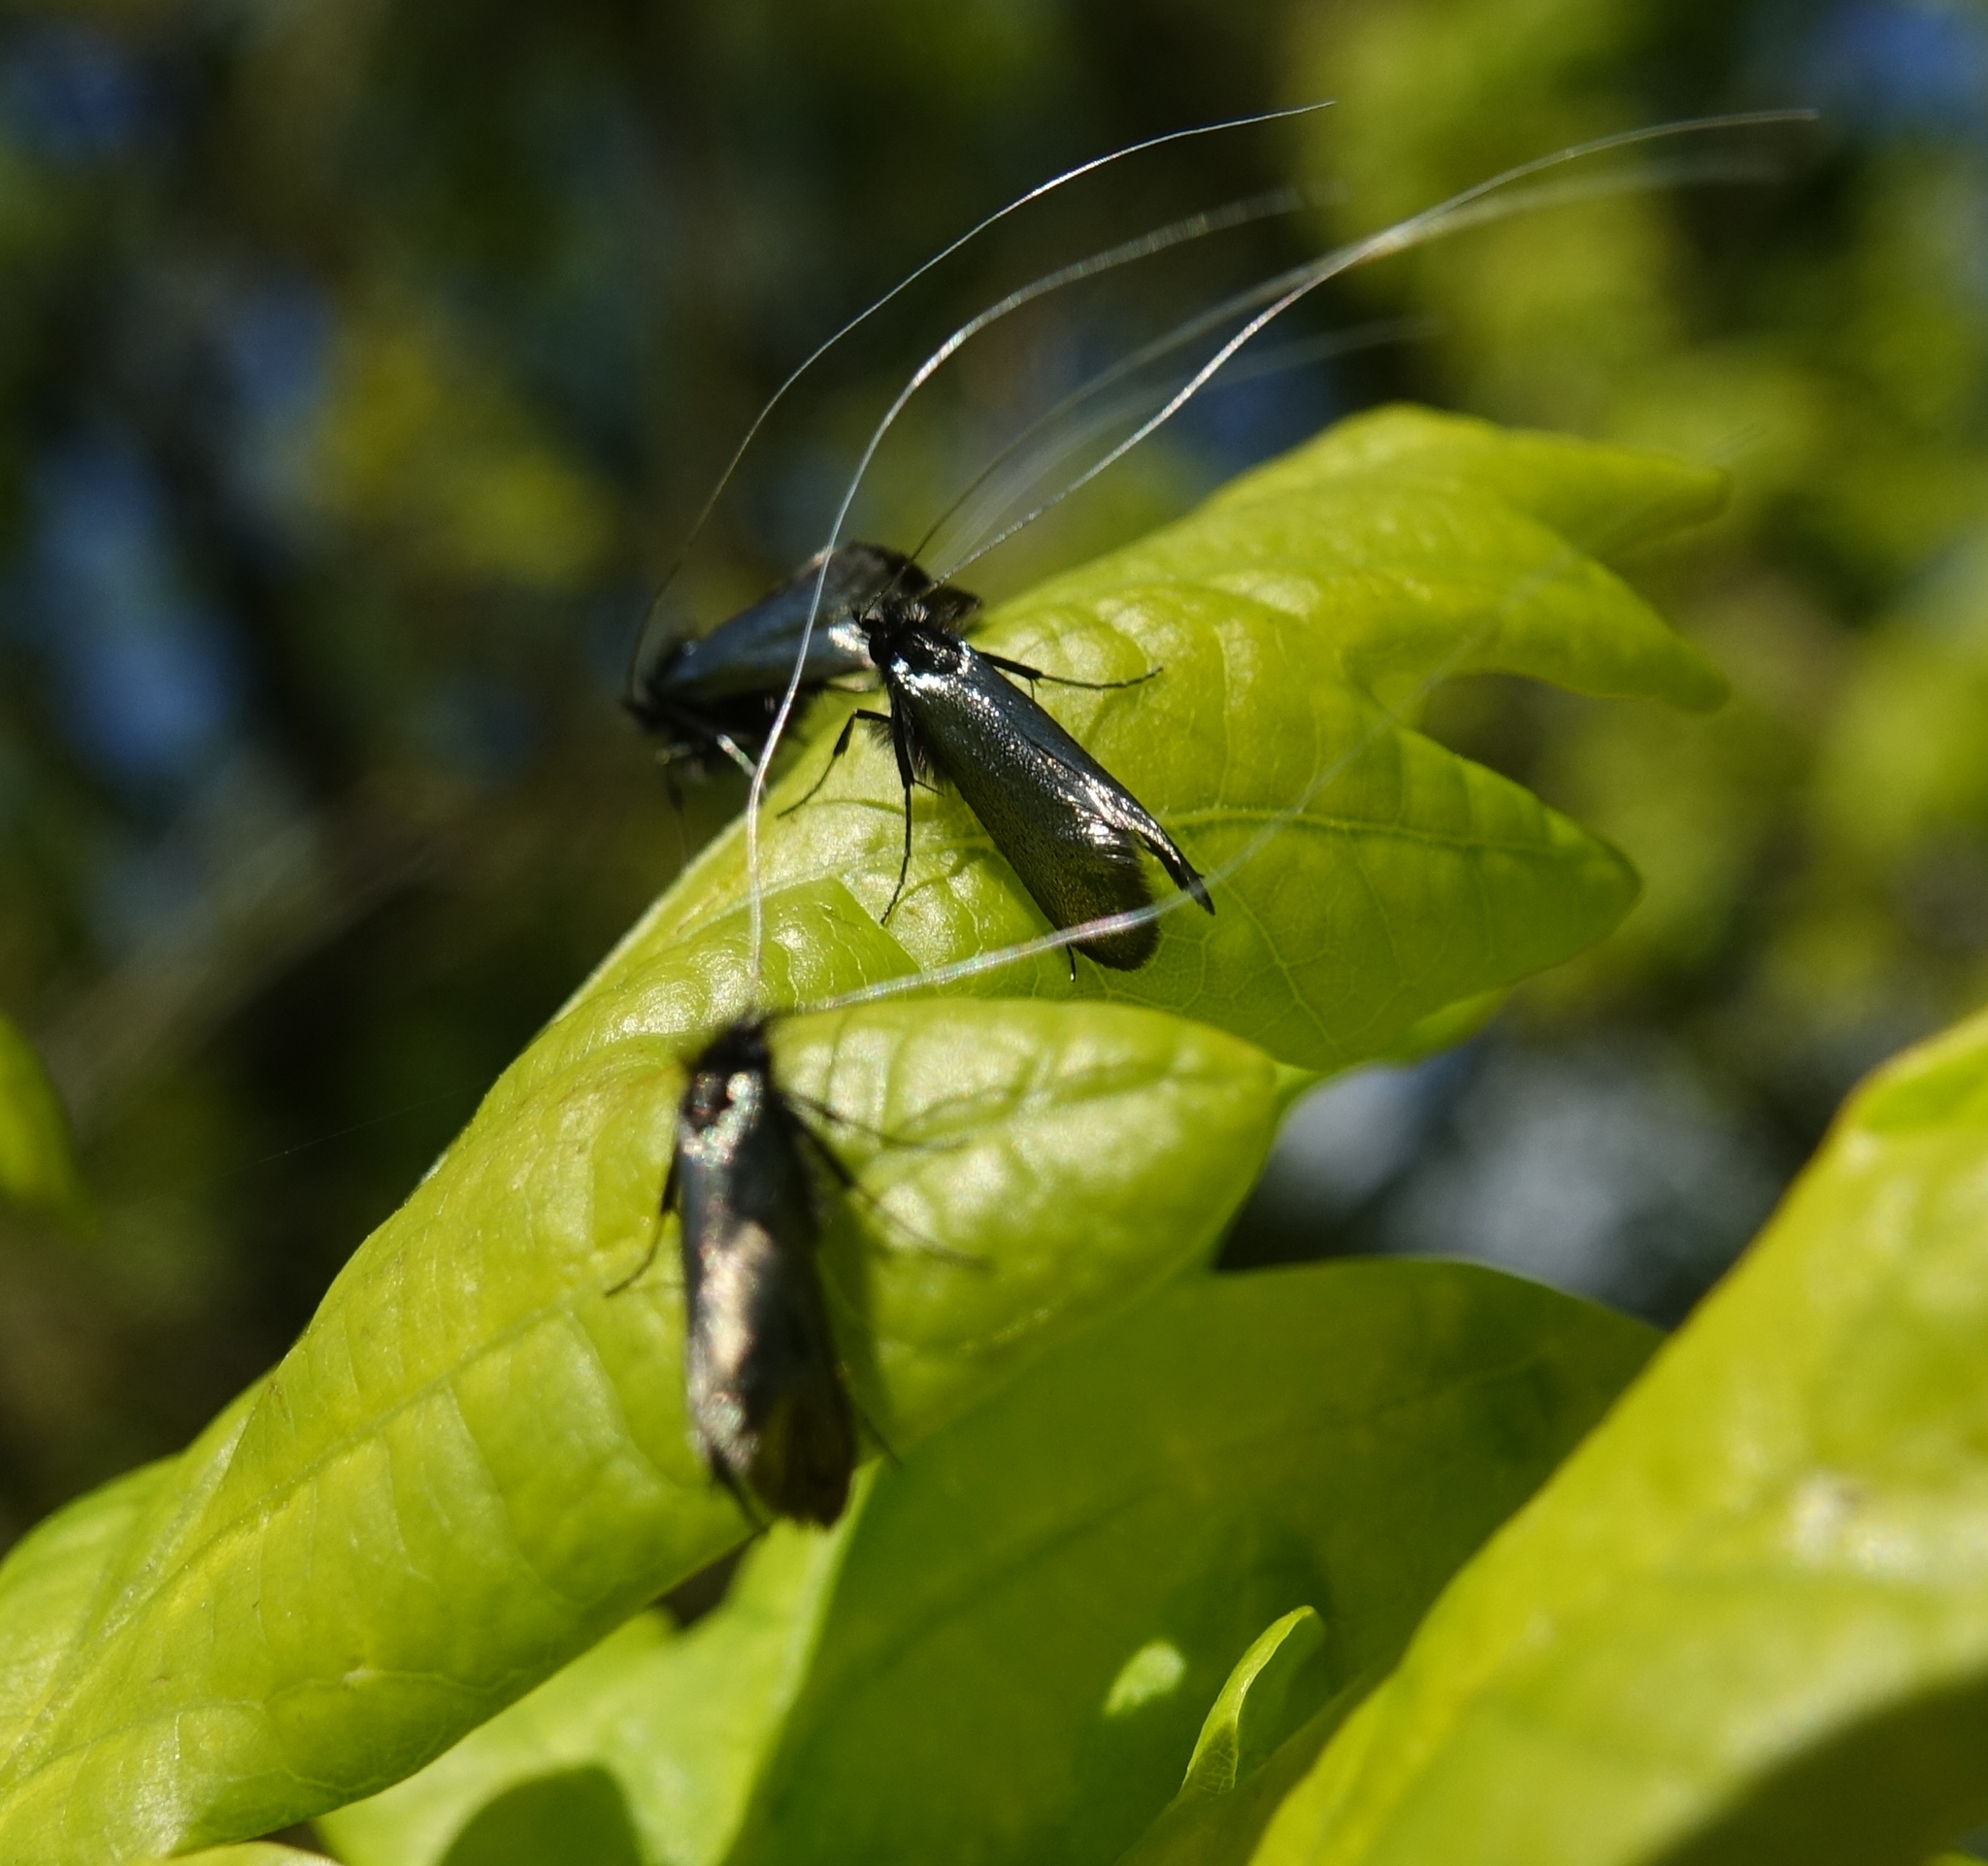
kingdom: Animalia
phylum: Arthropoda
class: Insecta
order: Lepidoptera
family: Adelidae
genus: Adela
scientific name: Adela viridella
